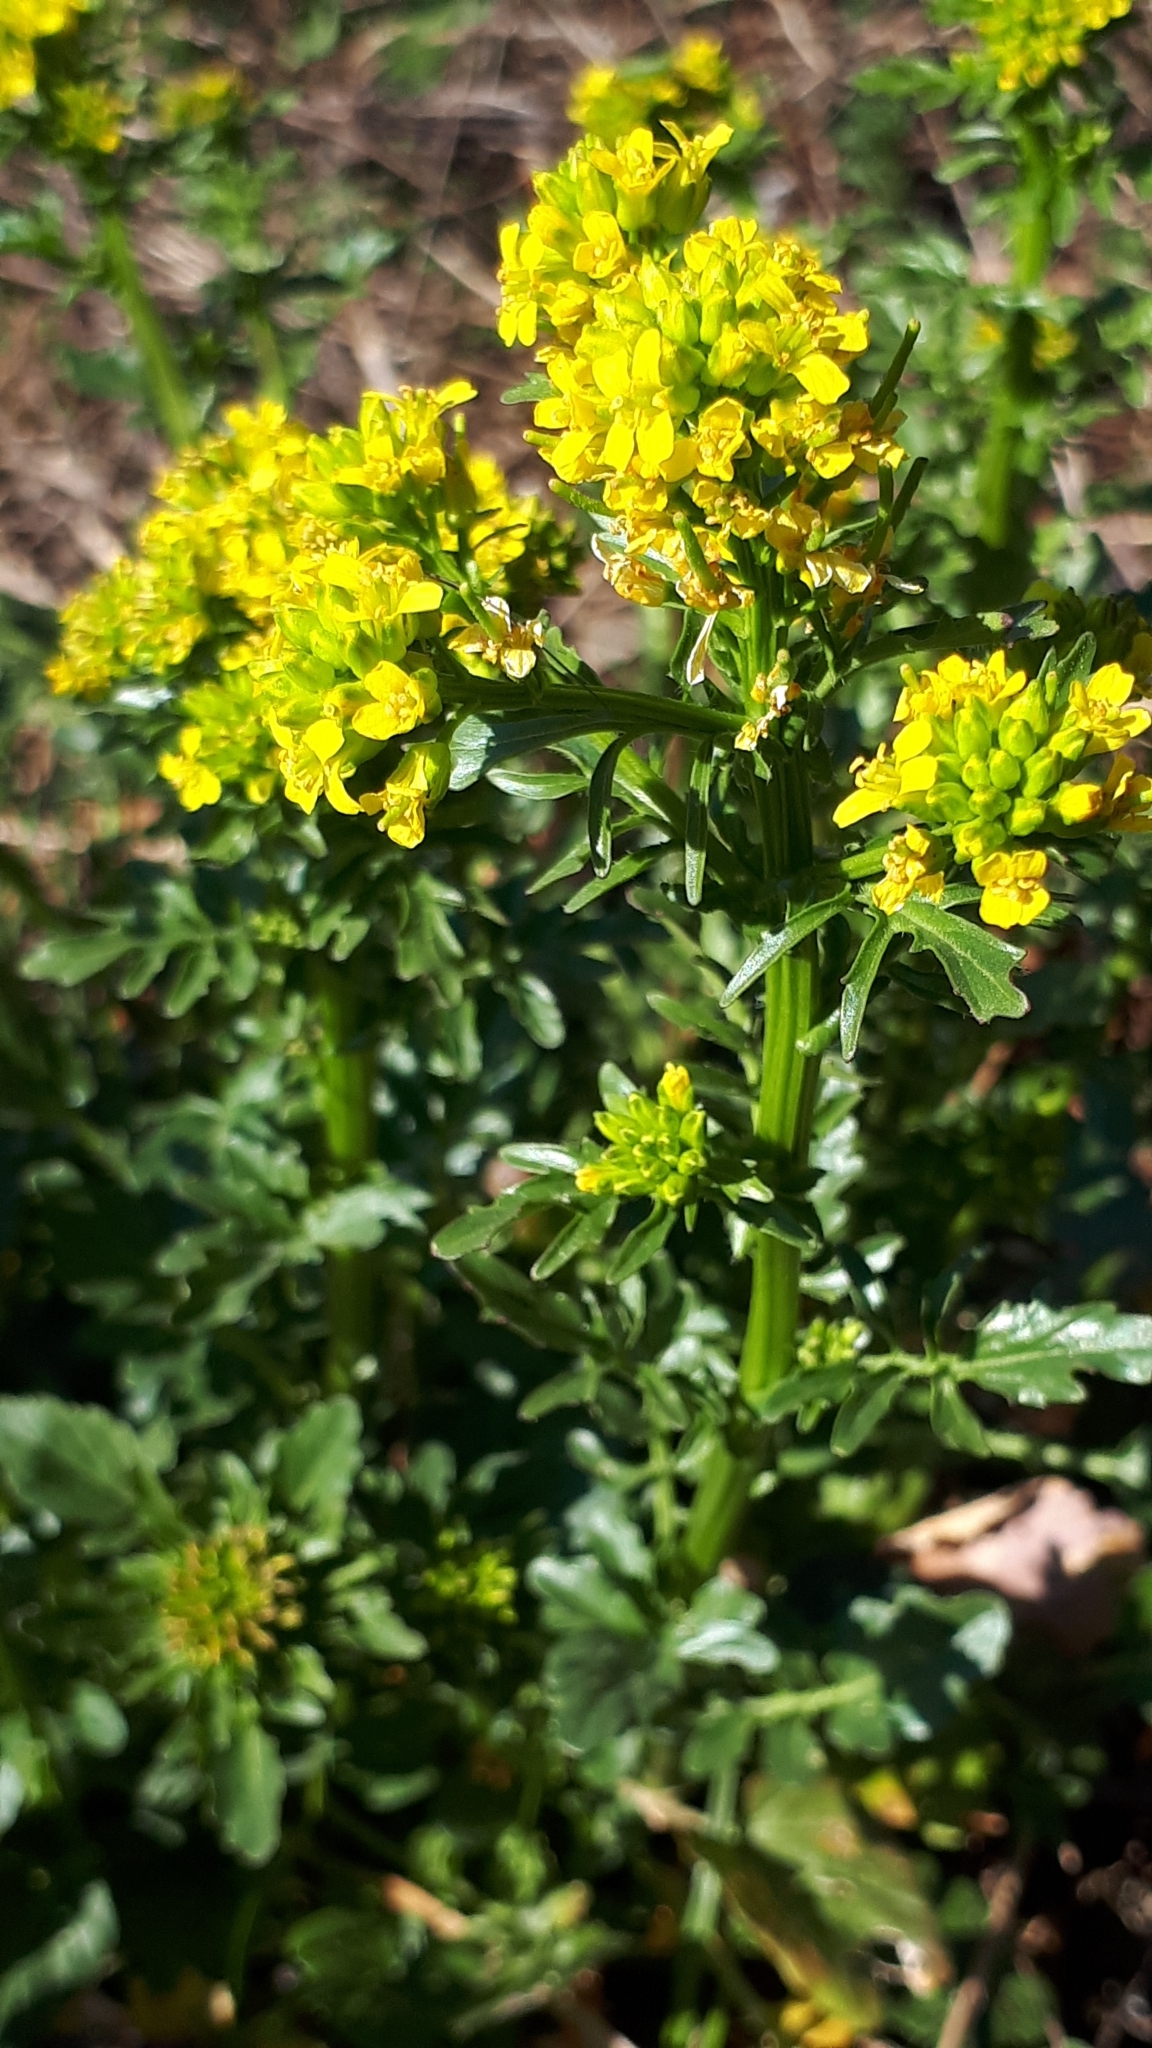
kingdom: Plantae
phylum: Tracheophyta
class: Magnoliopsida
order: Brassicales
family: Brassicaceae
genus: Barbarea
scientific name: Barbarea vulgaris
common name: Cressy-greens
